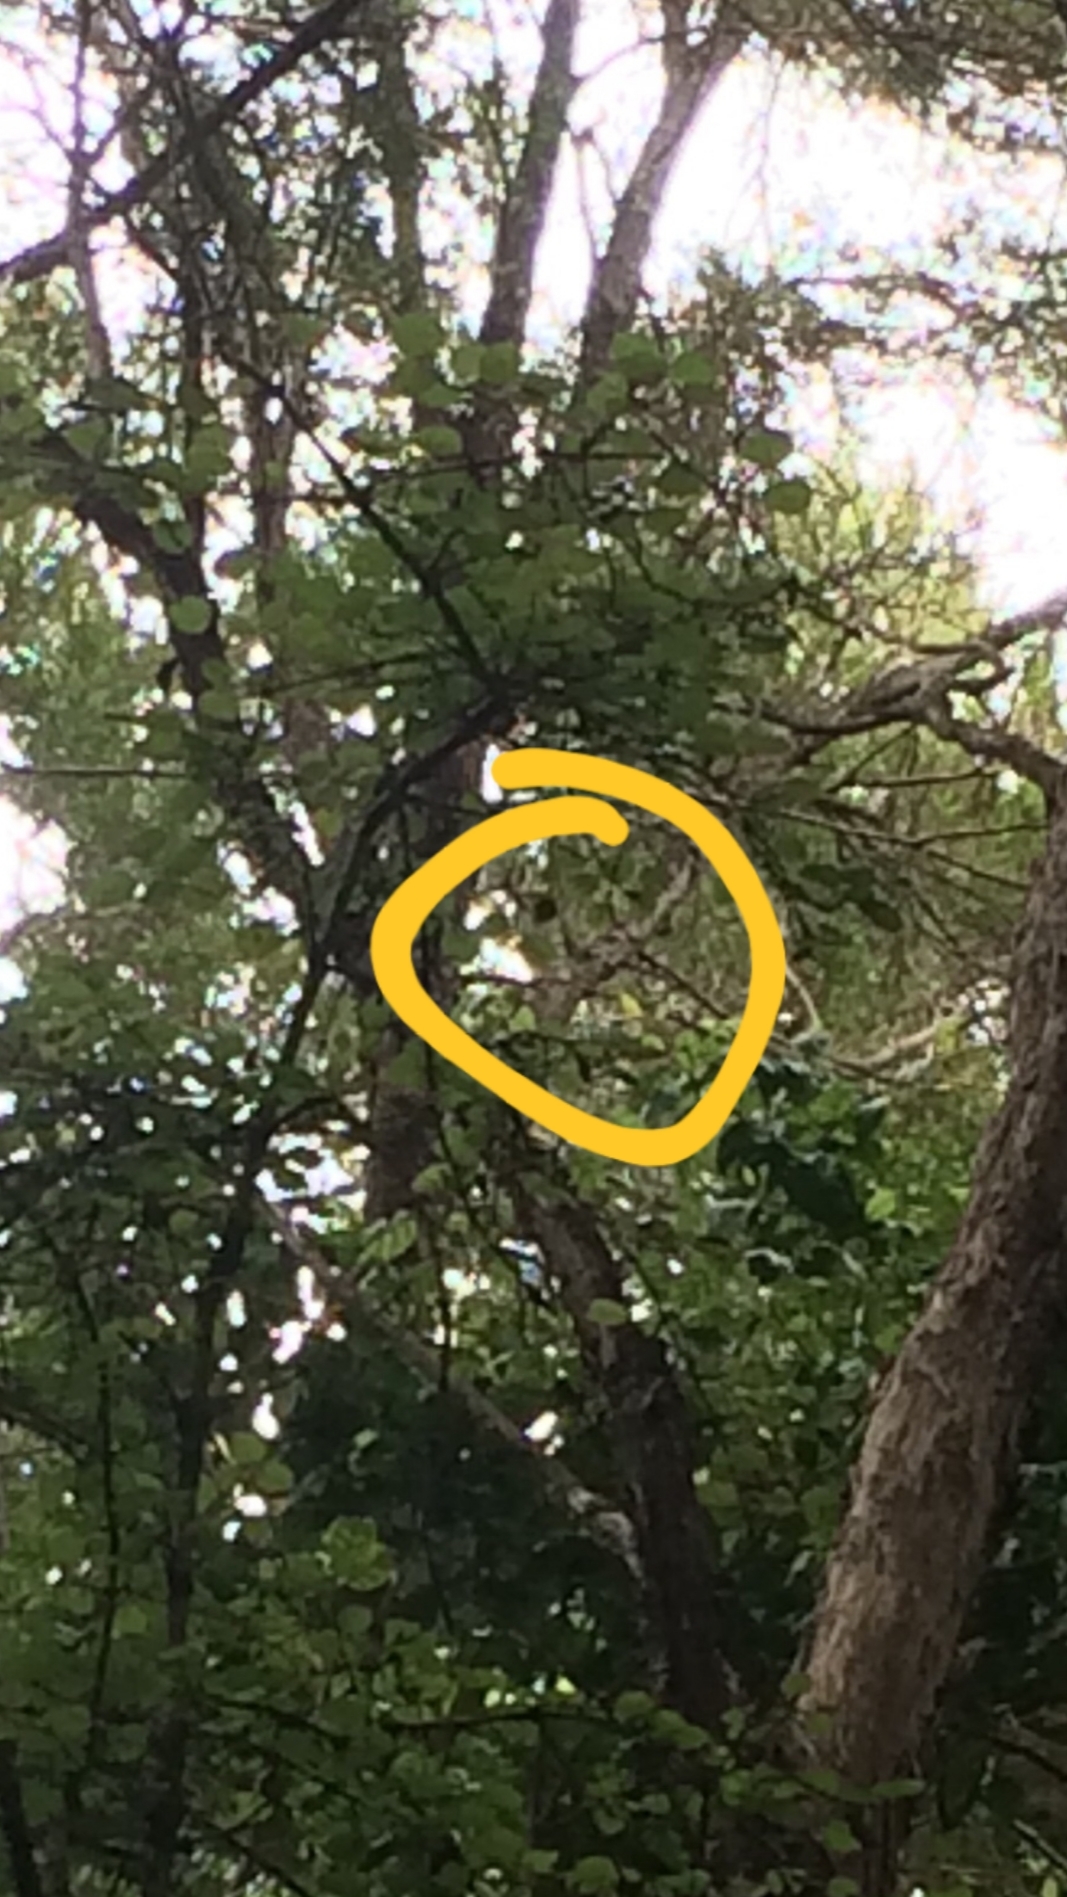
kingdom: Animalia
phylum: Chordata
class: Aves
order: Passeriformes
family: Petroicidae
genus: Petroica
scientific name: Petroica macrocephala
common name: Tomtit
